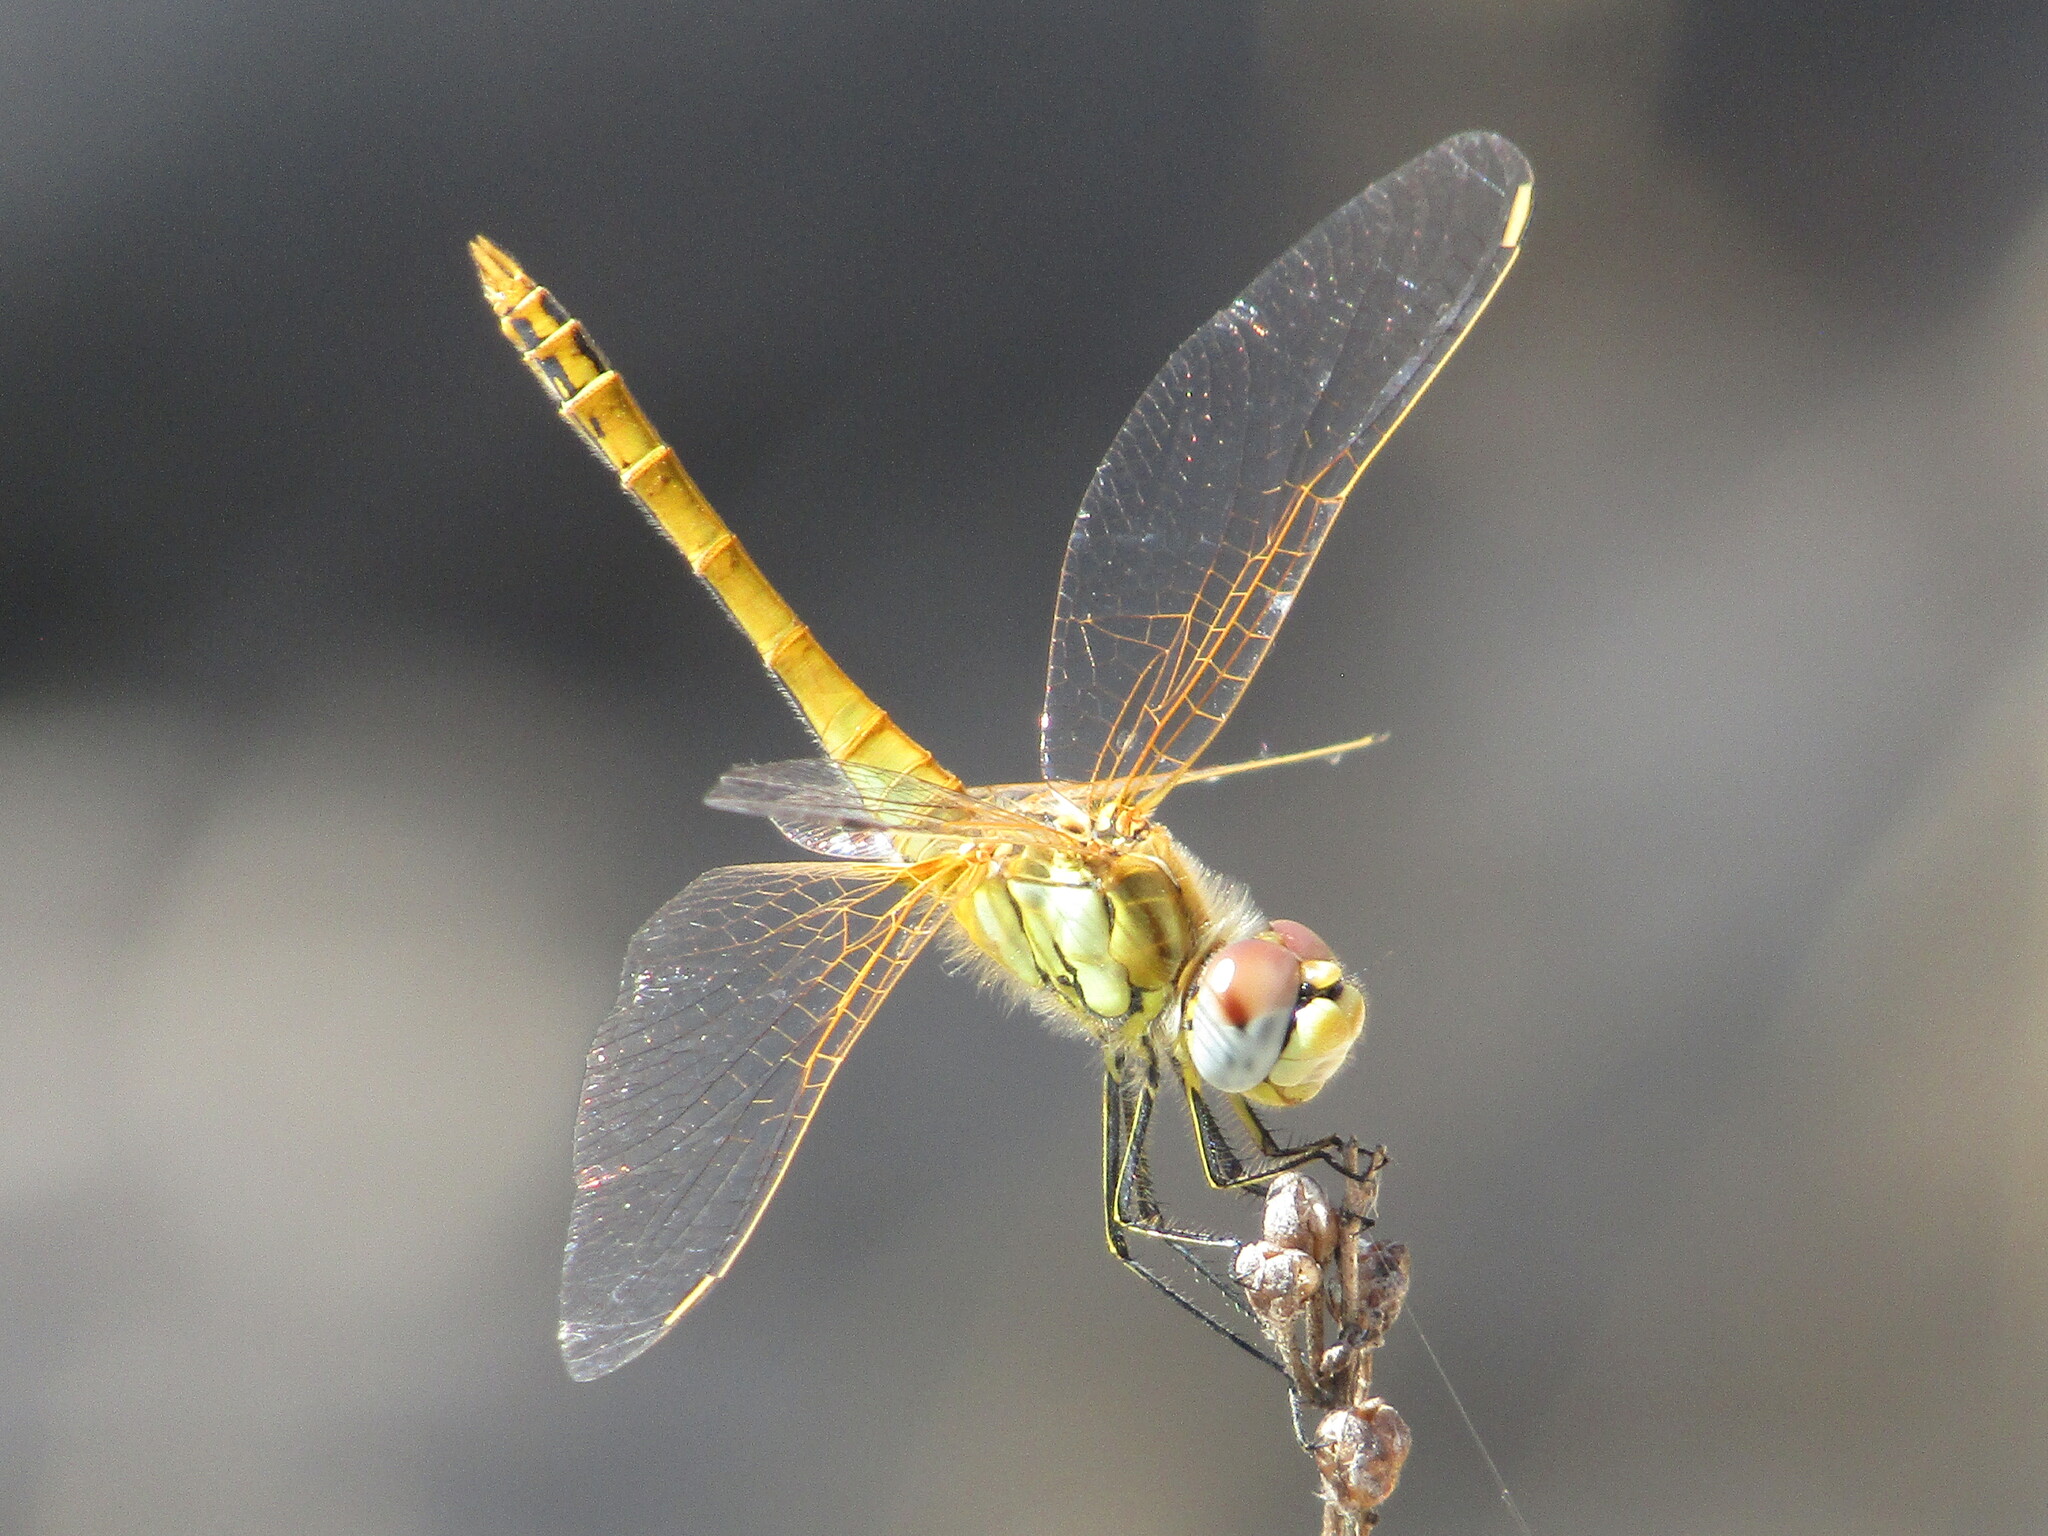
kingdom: Animalia
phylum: Arthropoda
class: Insecta
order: Odonata
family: Libellulidae
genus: Sympetrum
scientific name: Sympetrum fonscolombii
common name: Red-veined darter
